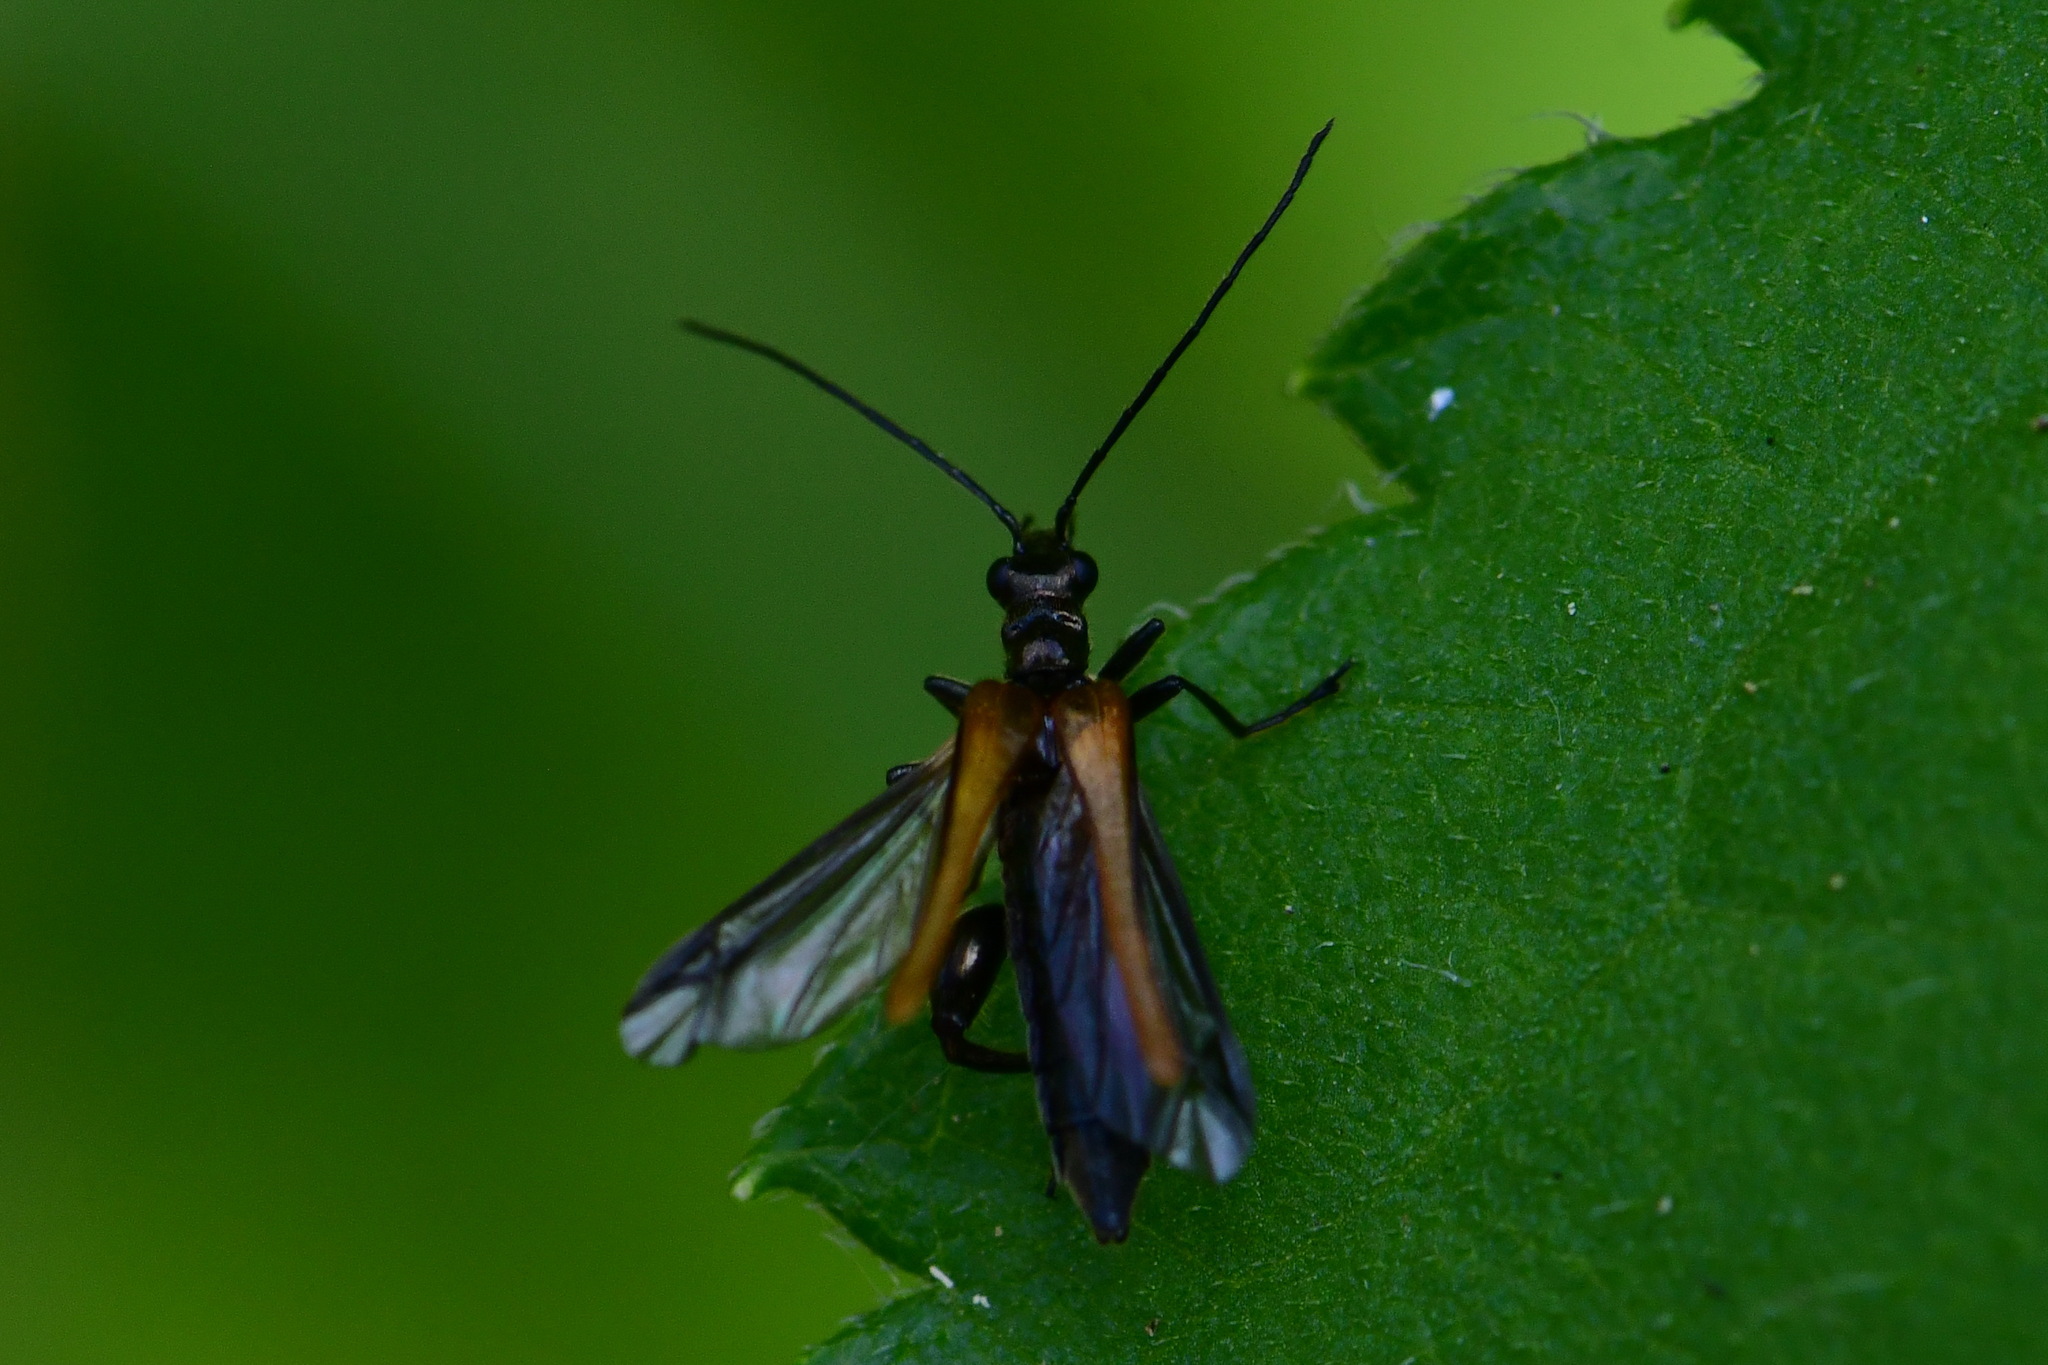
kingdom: Animalia
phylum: Arthropoda
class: Insecta
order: Coleoptera
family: Oedemeridae
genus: Oedemera
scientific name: Oedemera femorata
